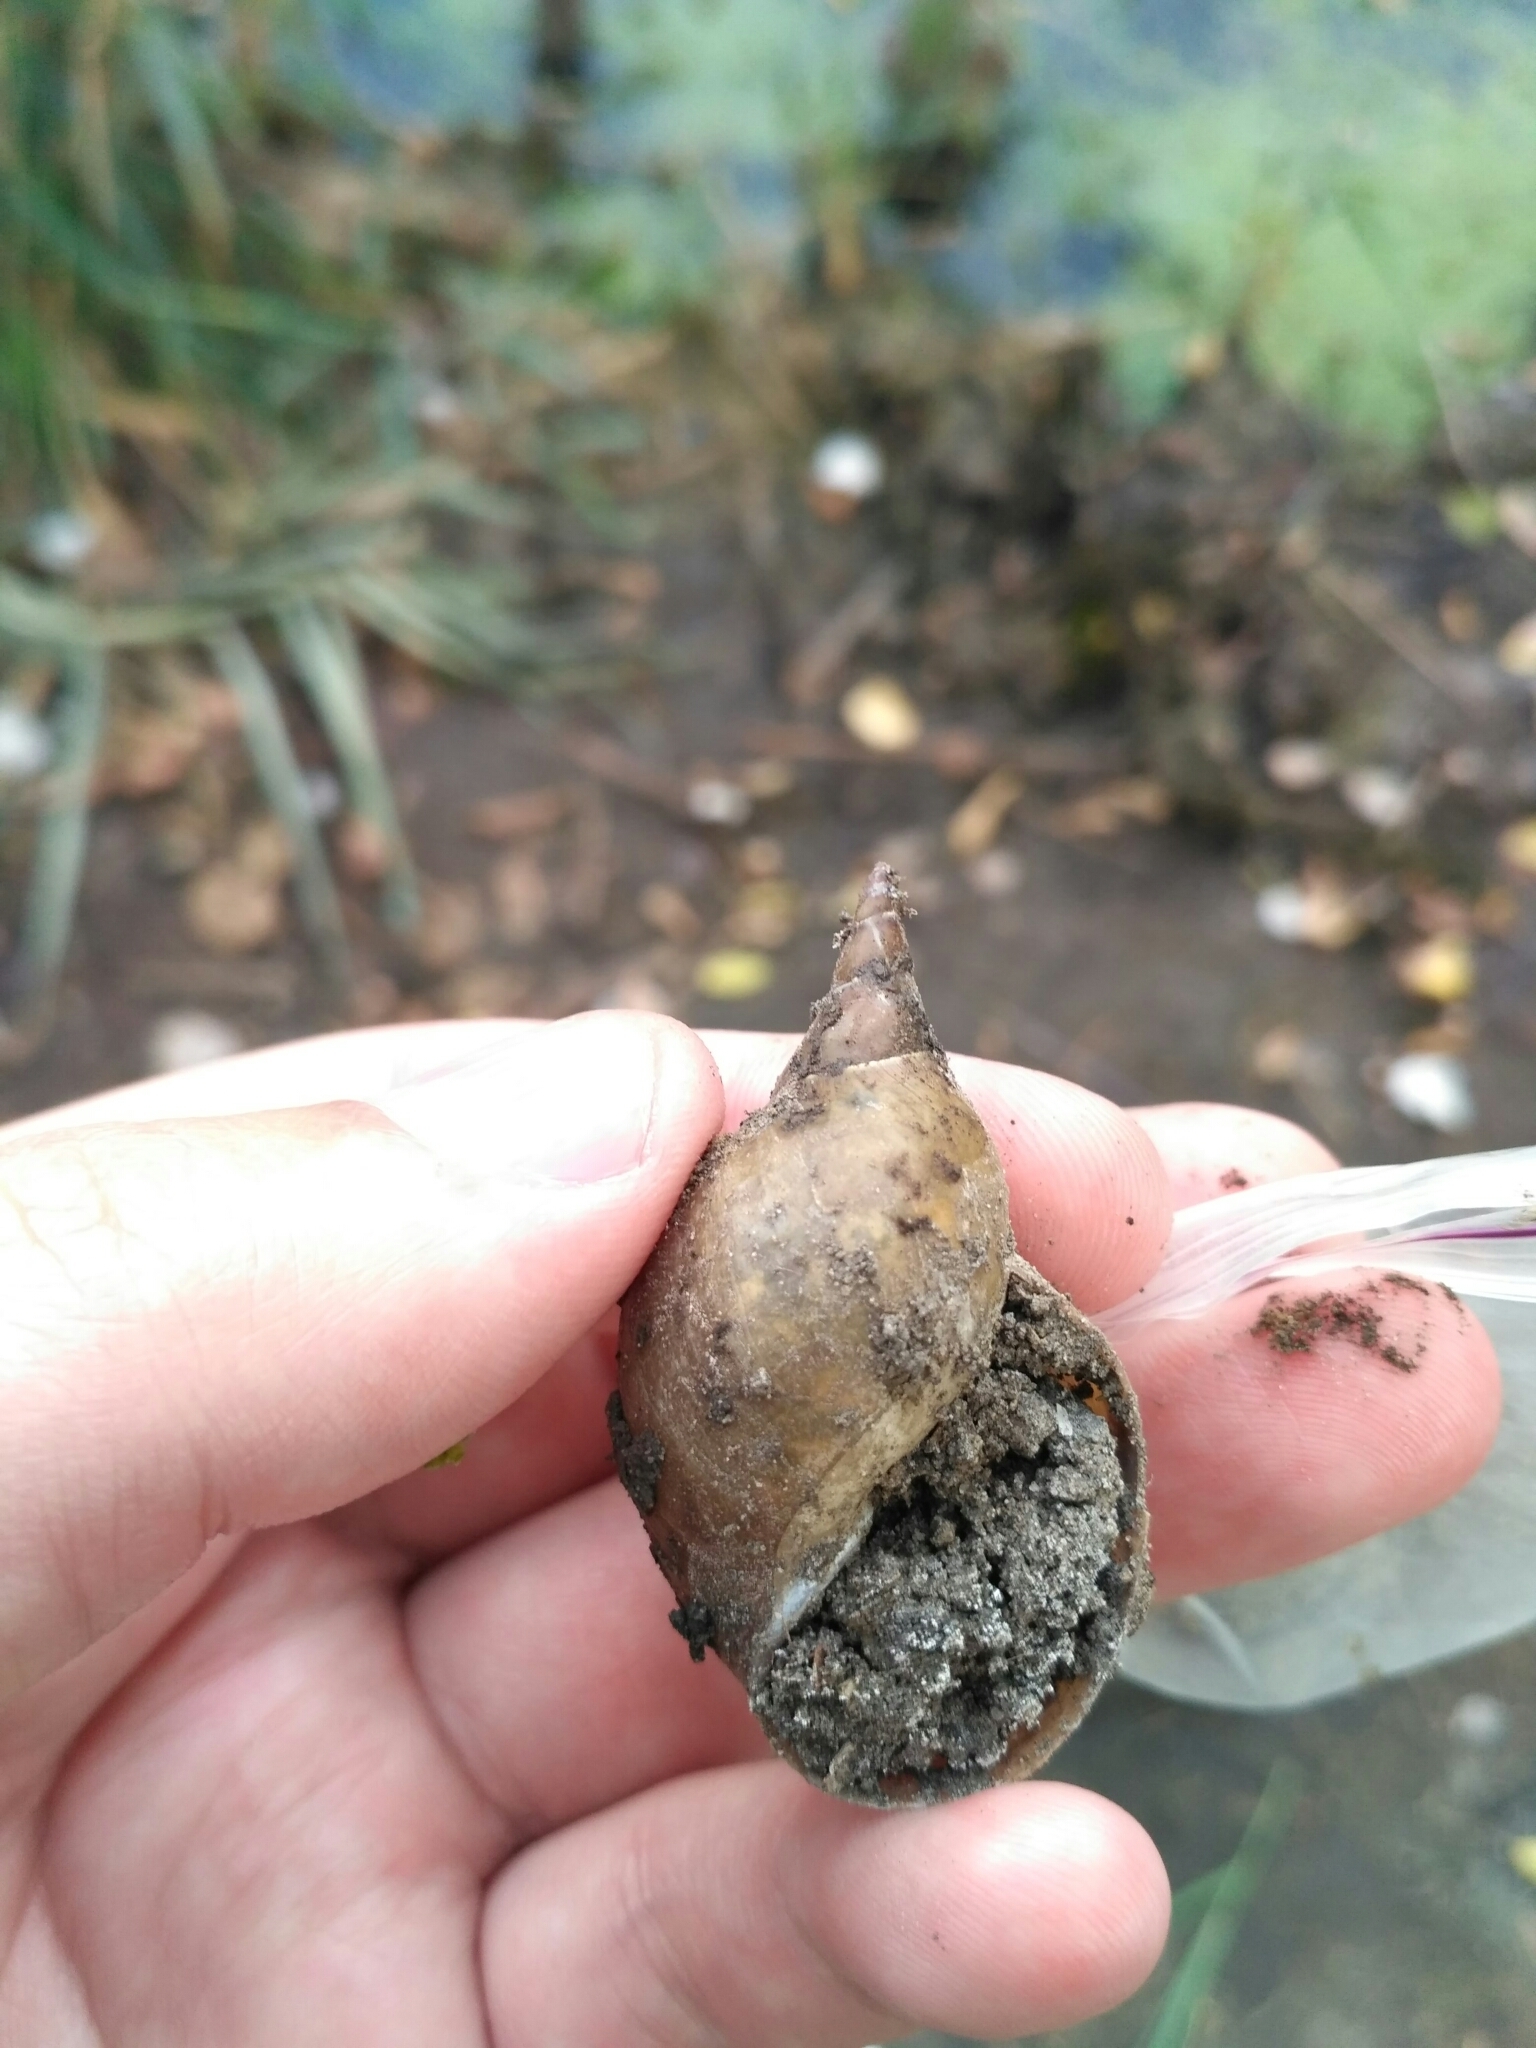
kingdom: Animalia
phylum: Mollusca
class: Gastropoda
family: Lymnaeidae
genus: Lymnaea
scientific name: Lymnaea stagnalis
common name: Great pond snail
